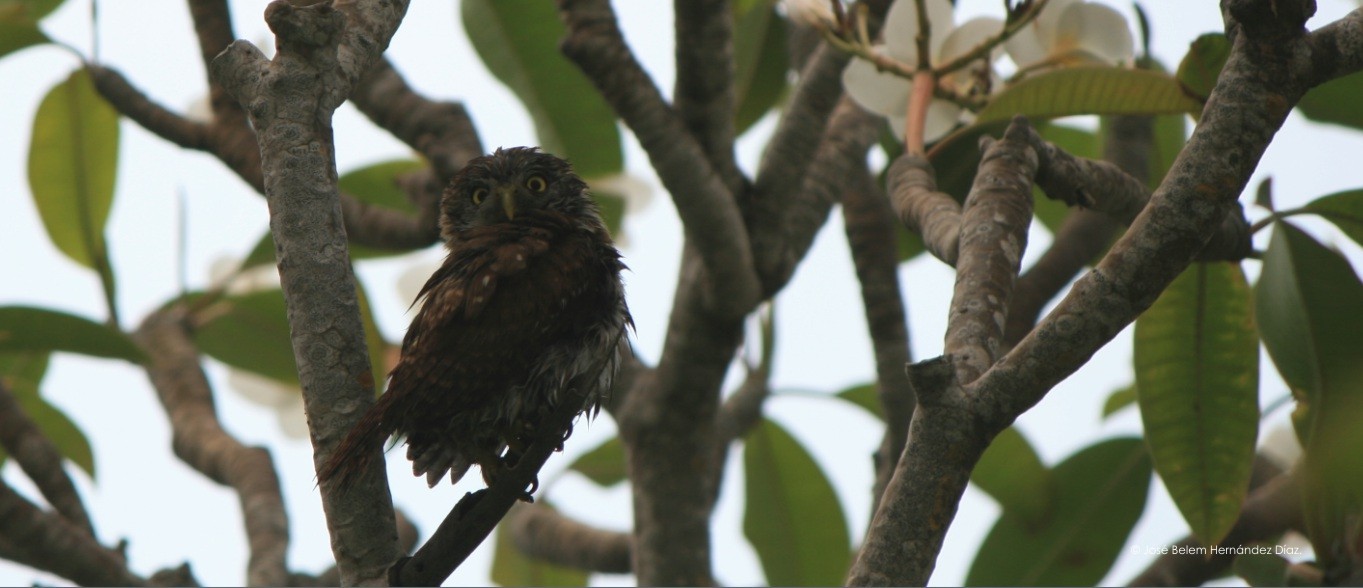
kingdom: Animalia
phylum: Chordata
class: Aves
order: Strigiformes
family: Strigidae
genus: Glaucidium
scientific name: Glaucidium brasilianum
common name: Ferruginous pygmy-owl
